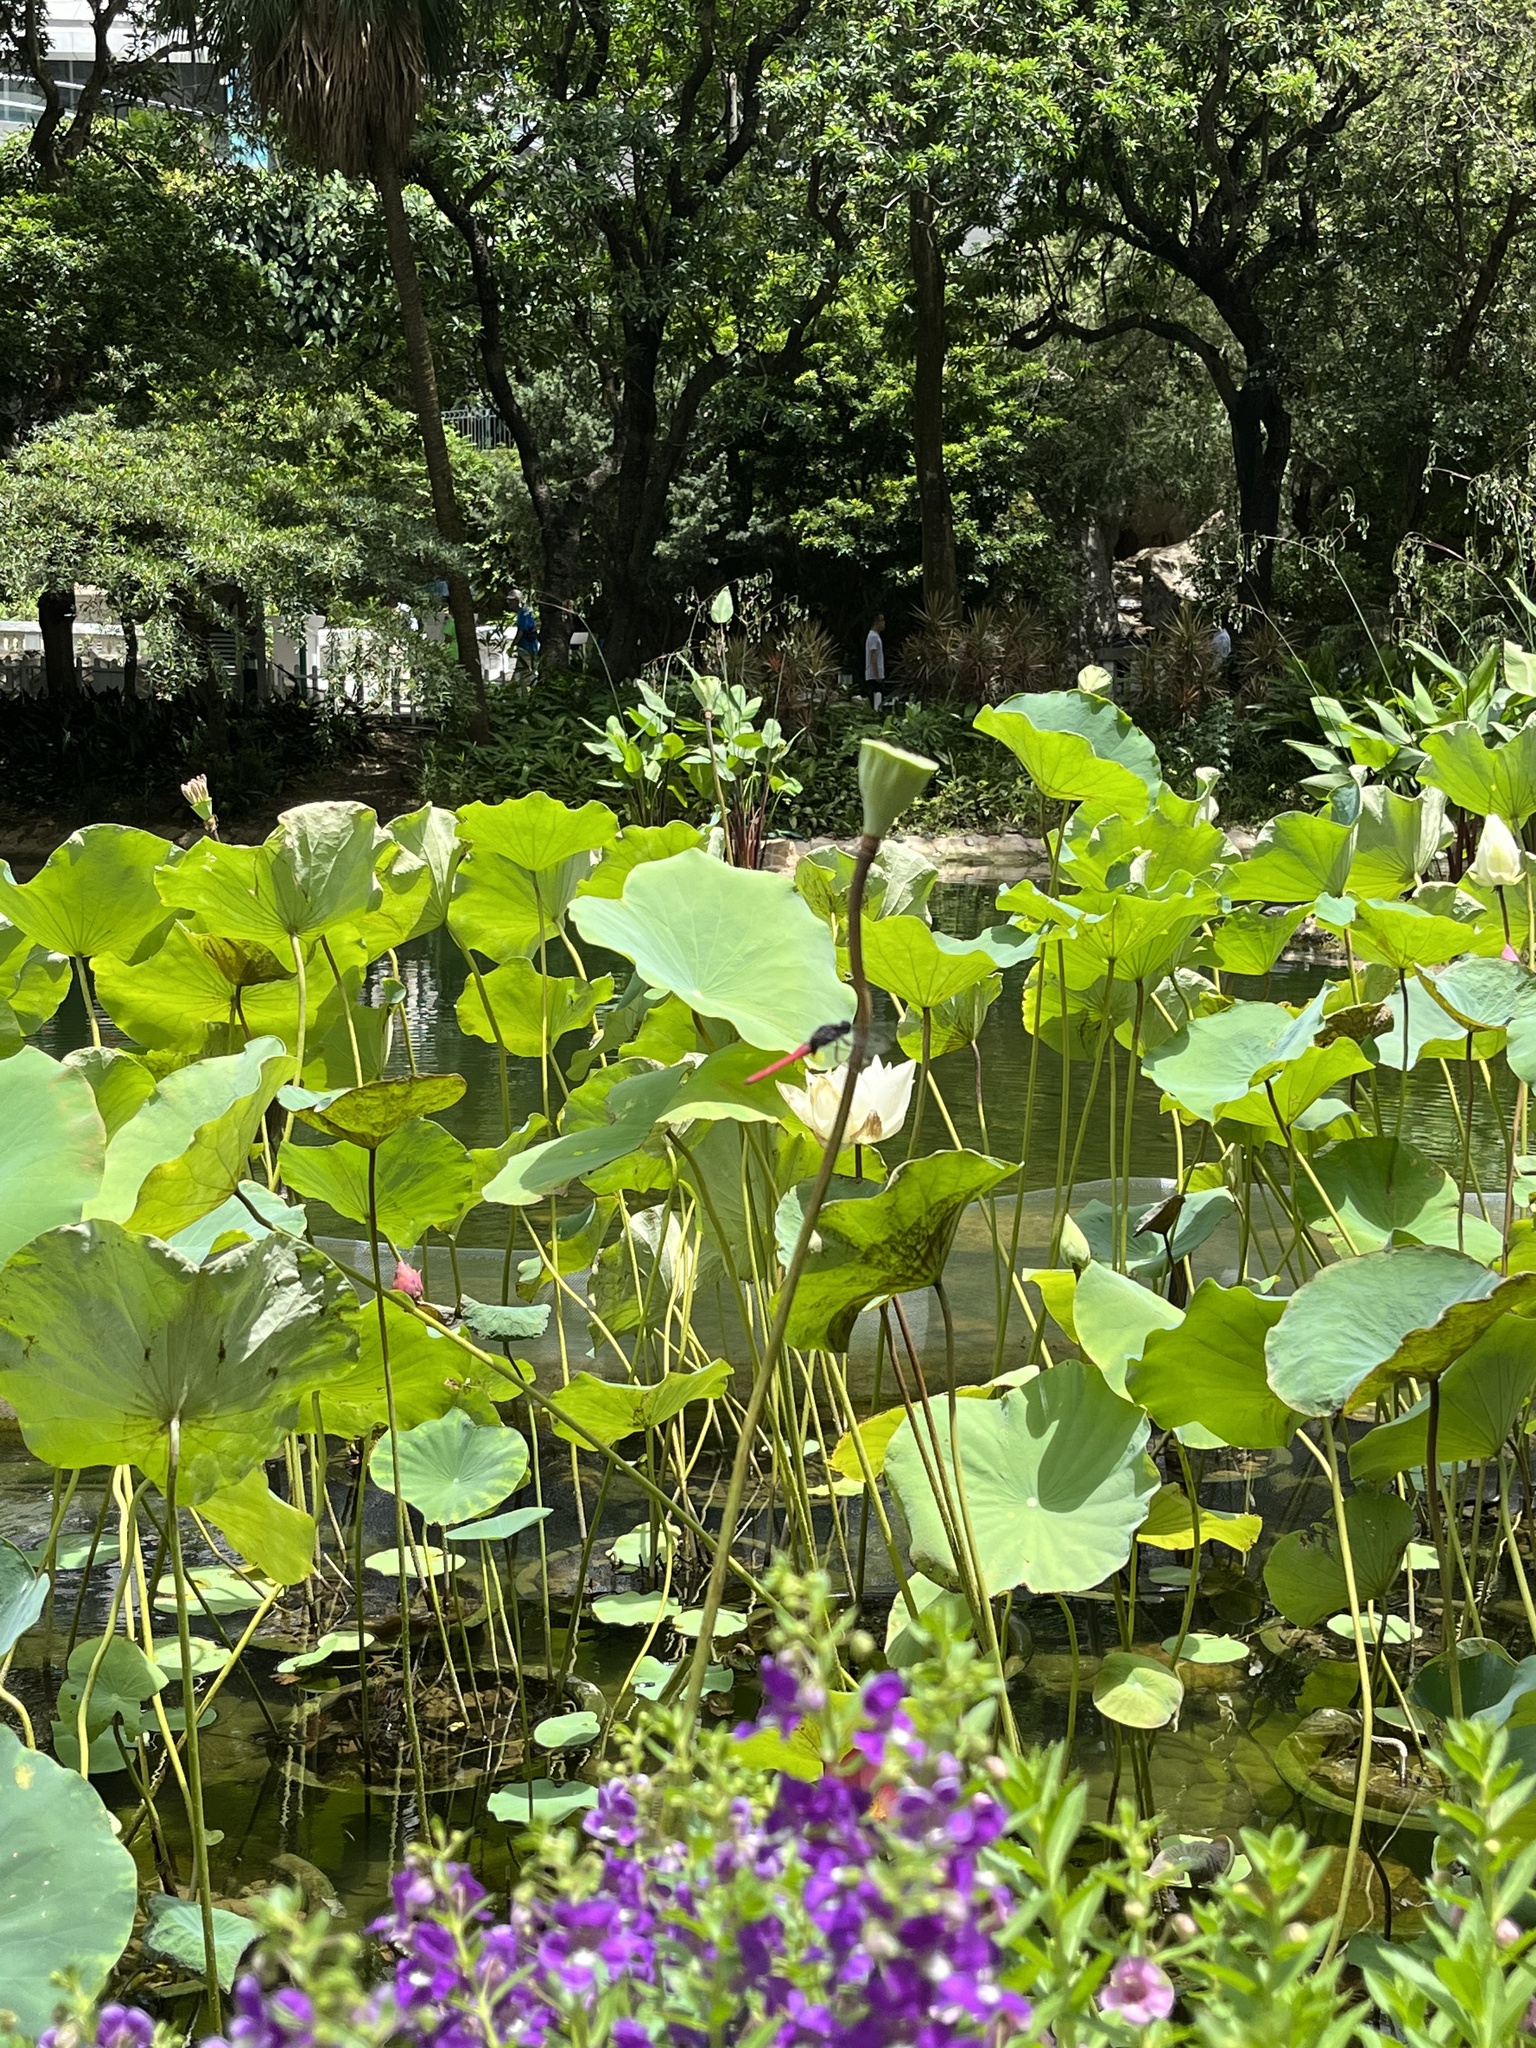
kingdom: Animalia
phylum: Arthropoda
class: Insecta
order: Odonata
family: Libellulidae
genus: Orthetrum
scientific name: Orthetrum pruinosum
